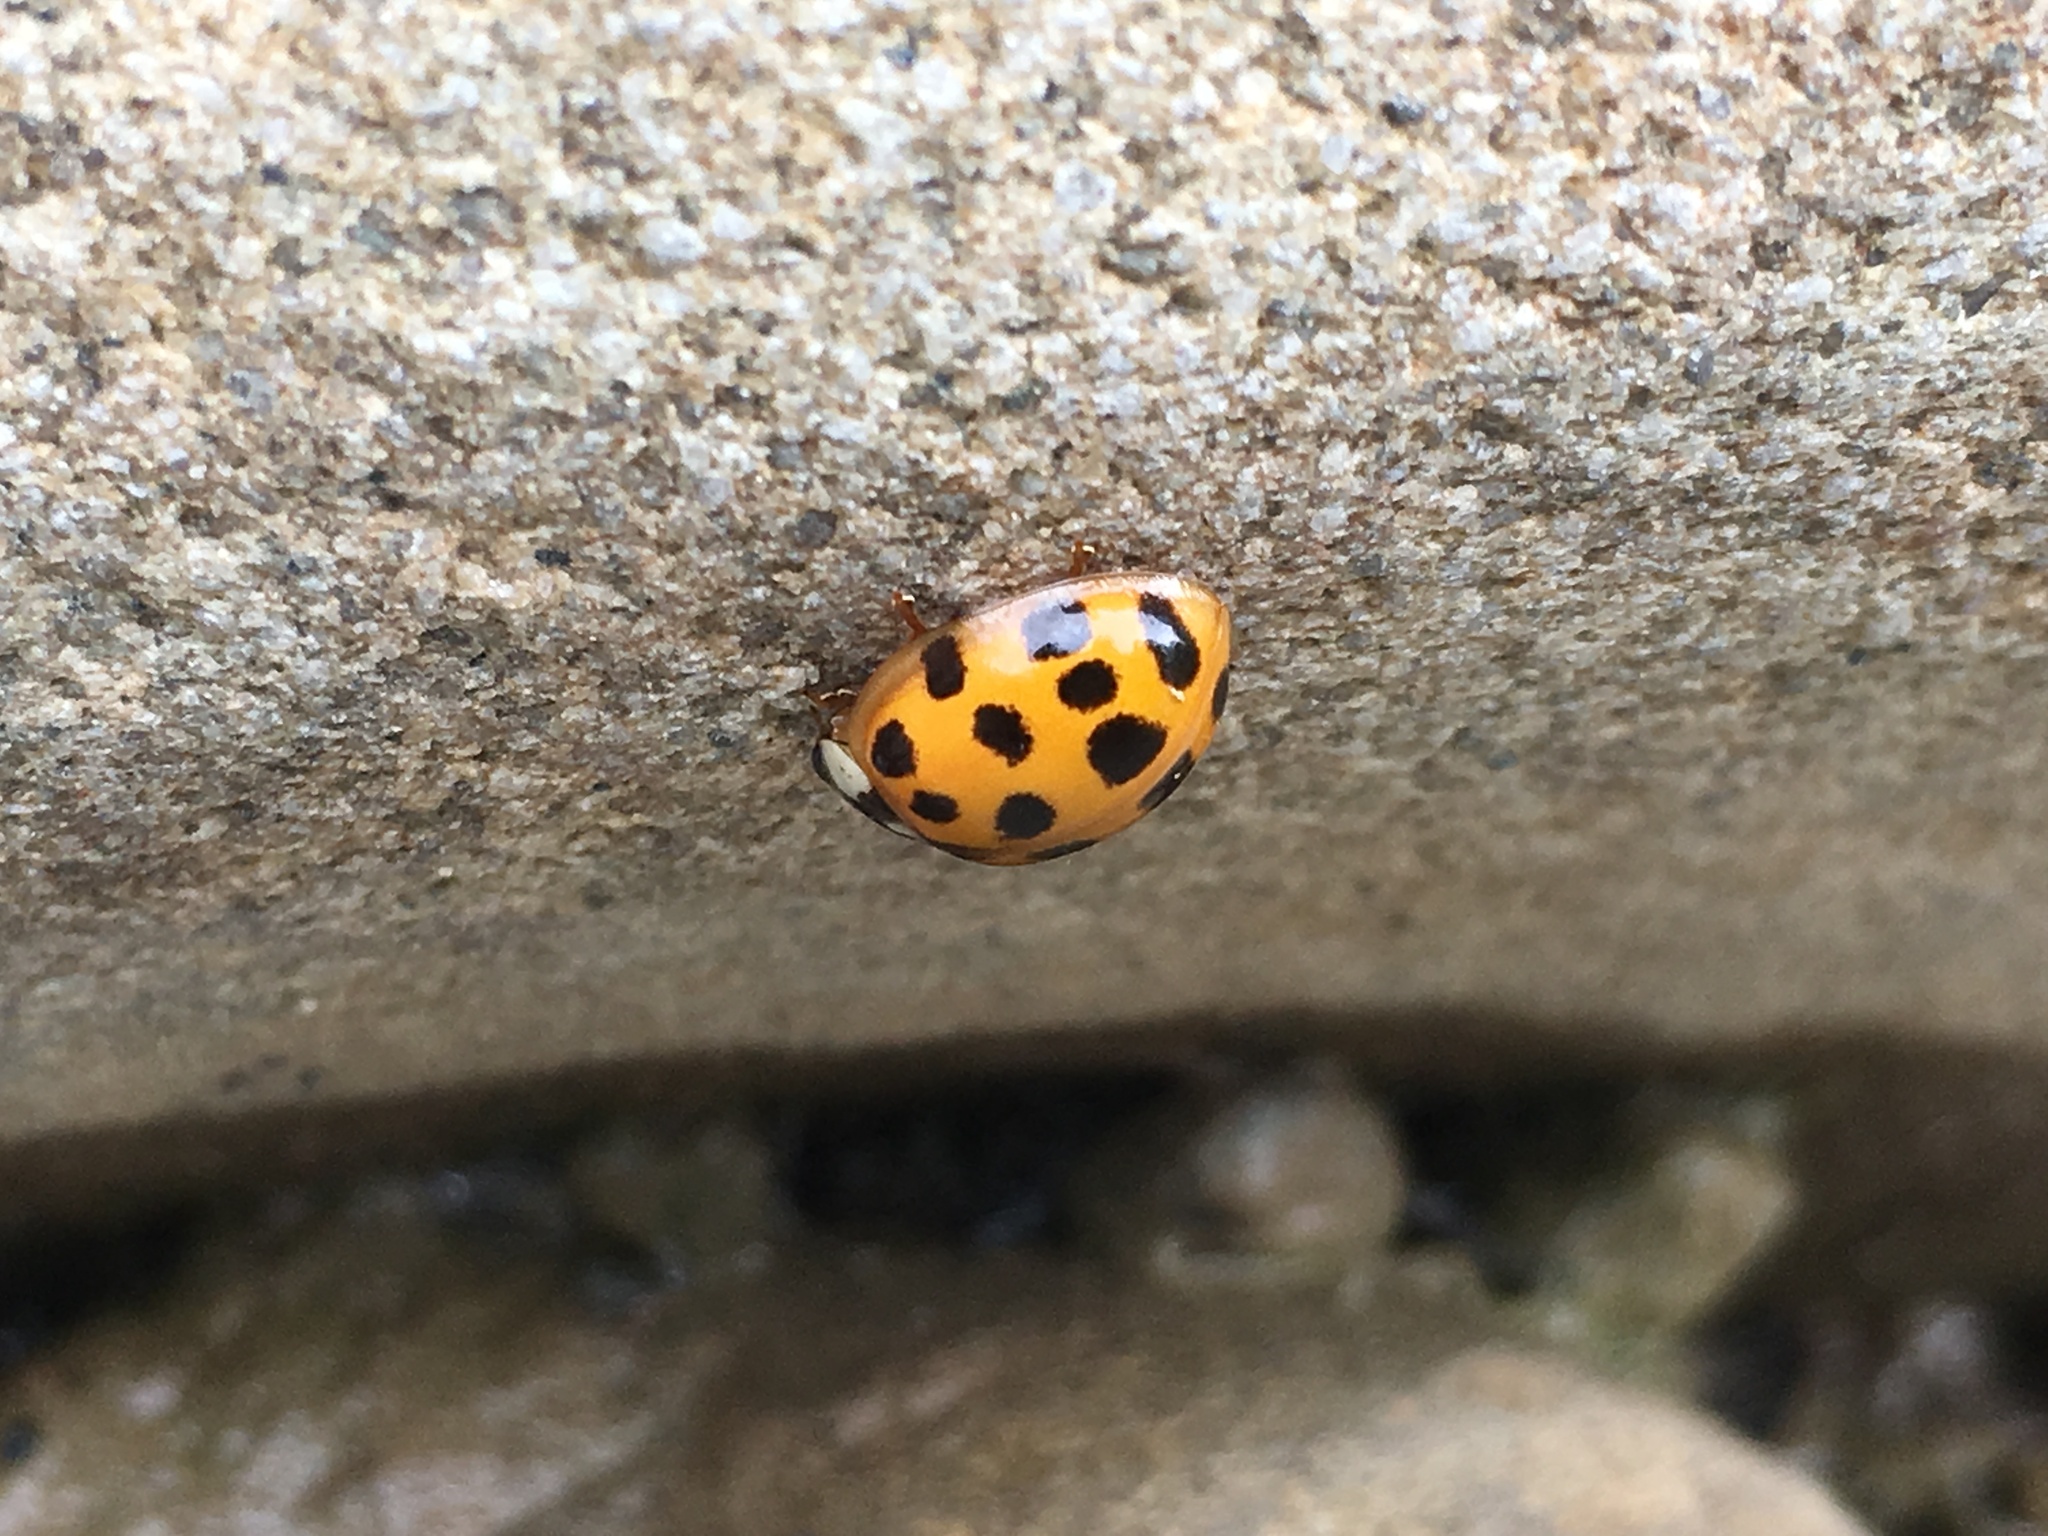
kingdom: Animalia
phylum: Arthropoda
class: Insecta
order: Coleoptera
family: Coccinellidae
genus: Harmonia
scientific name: Harmonia axyridis
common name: Harlequin ladybird
